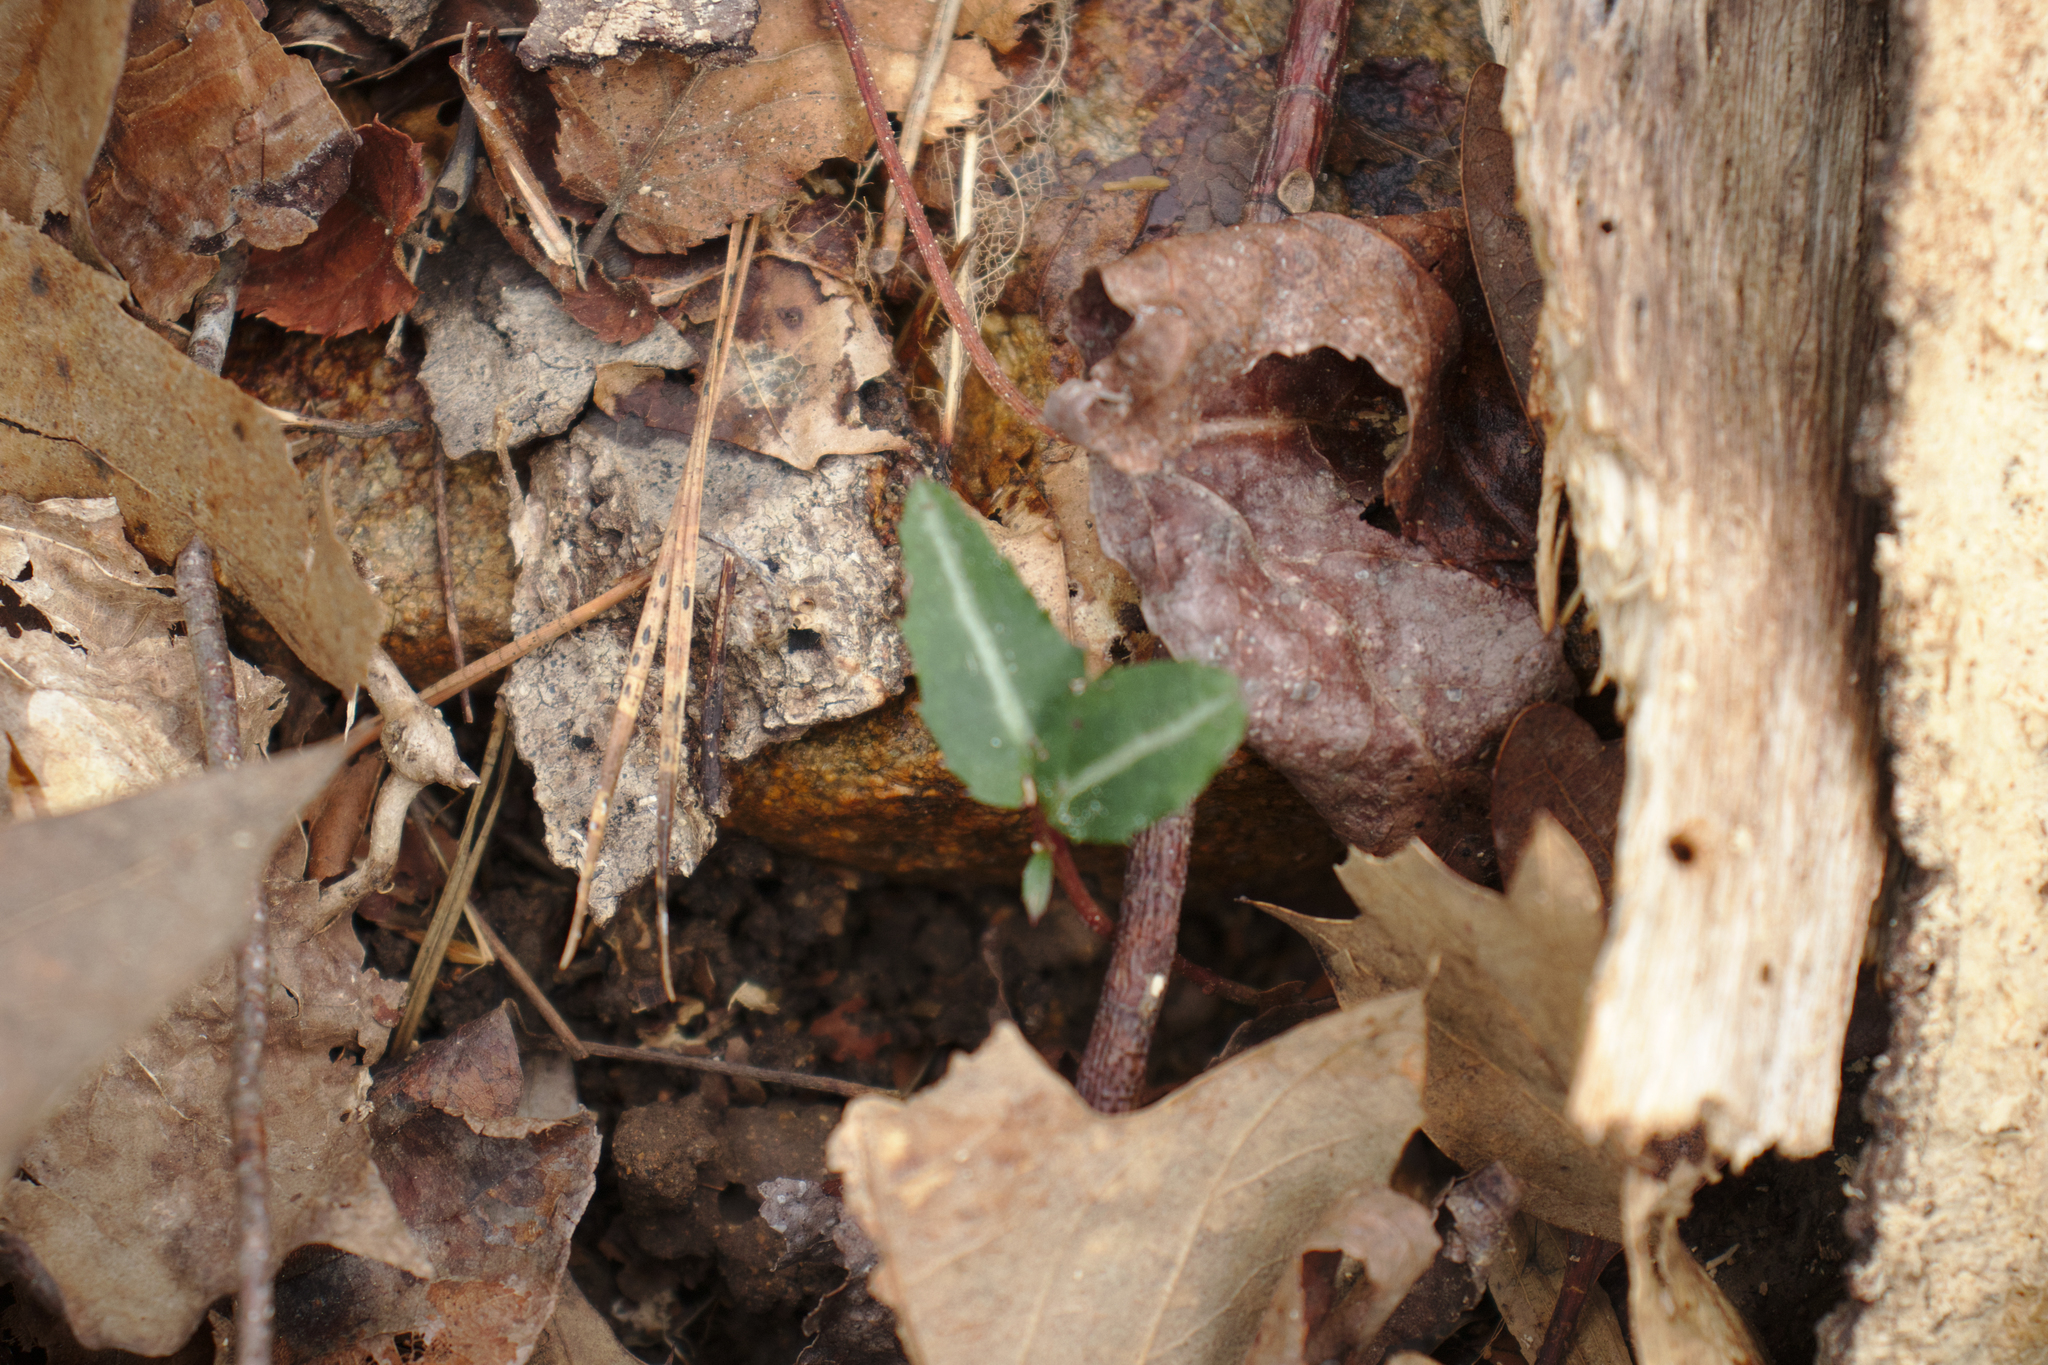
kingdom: Plantae
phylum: Tracheophyta
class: Magnoliopsida
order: Ericales
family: Ericaceae
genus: Chimaphila
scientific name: Chimaphila maculata
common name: Spotted pipsissewa
